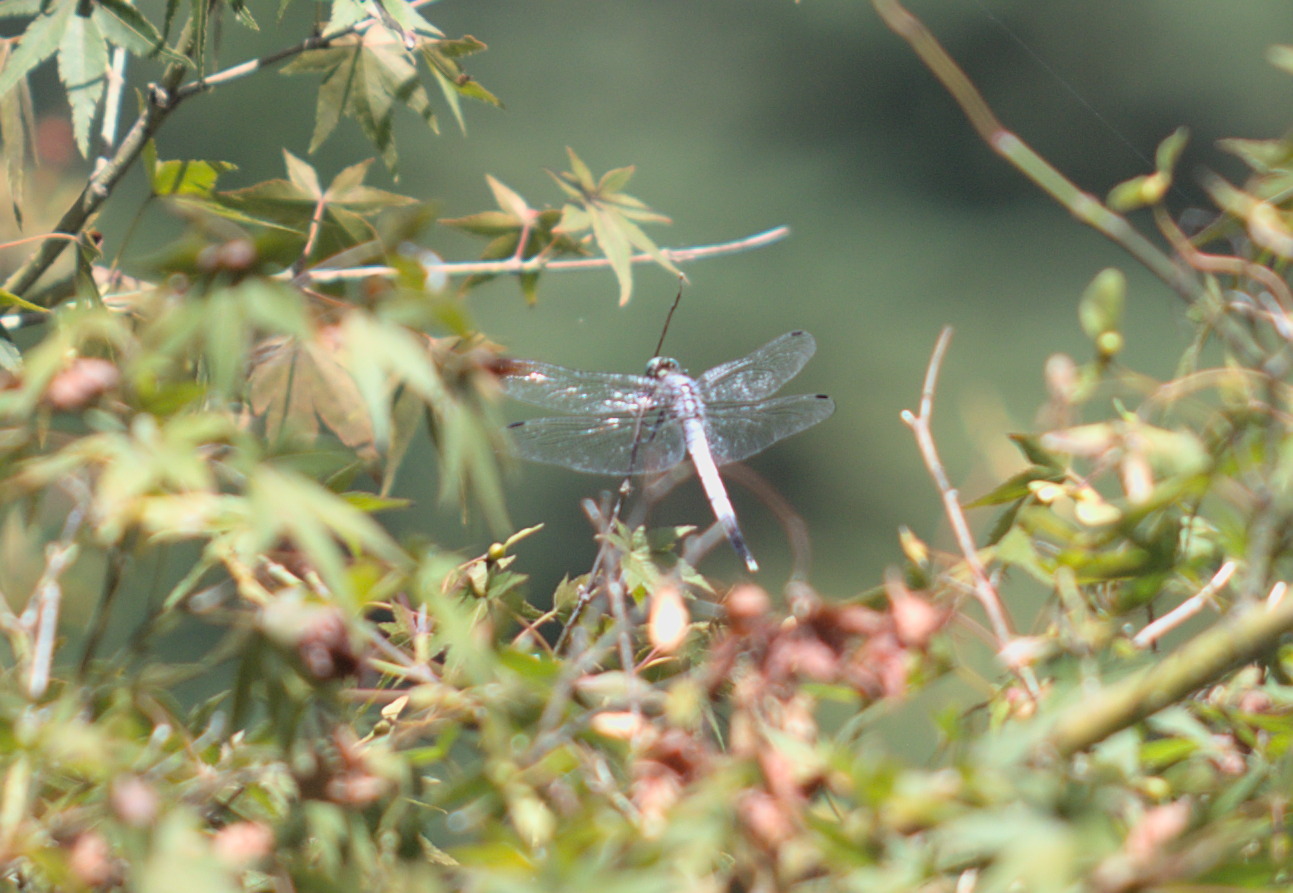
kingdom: Animalia
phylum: Arthropoda
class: Insecta
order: Odonata
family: Libellulidae
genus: Orthetrum
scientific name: Orthetrum albistylum
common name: White-tailed skimmer
